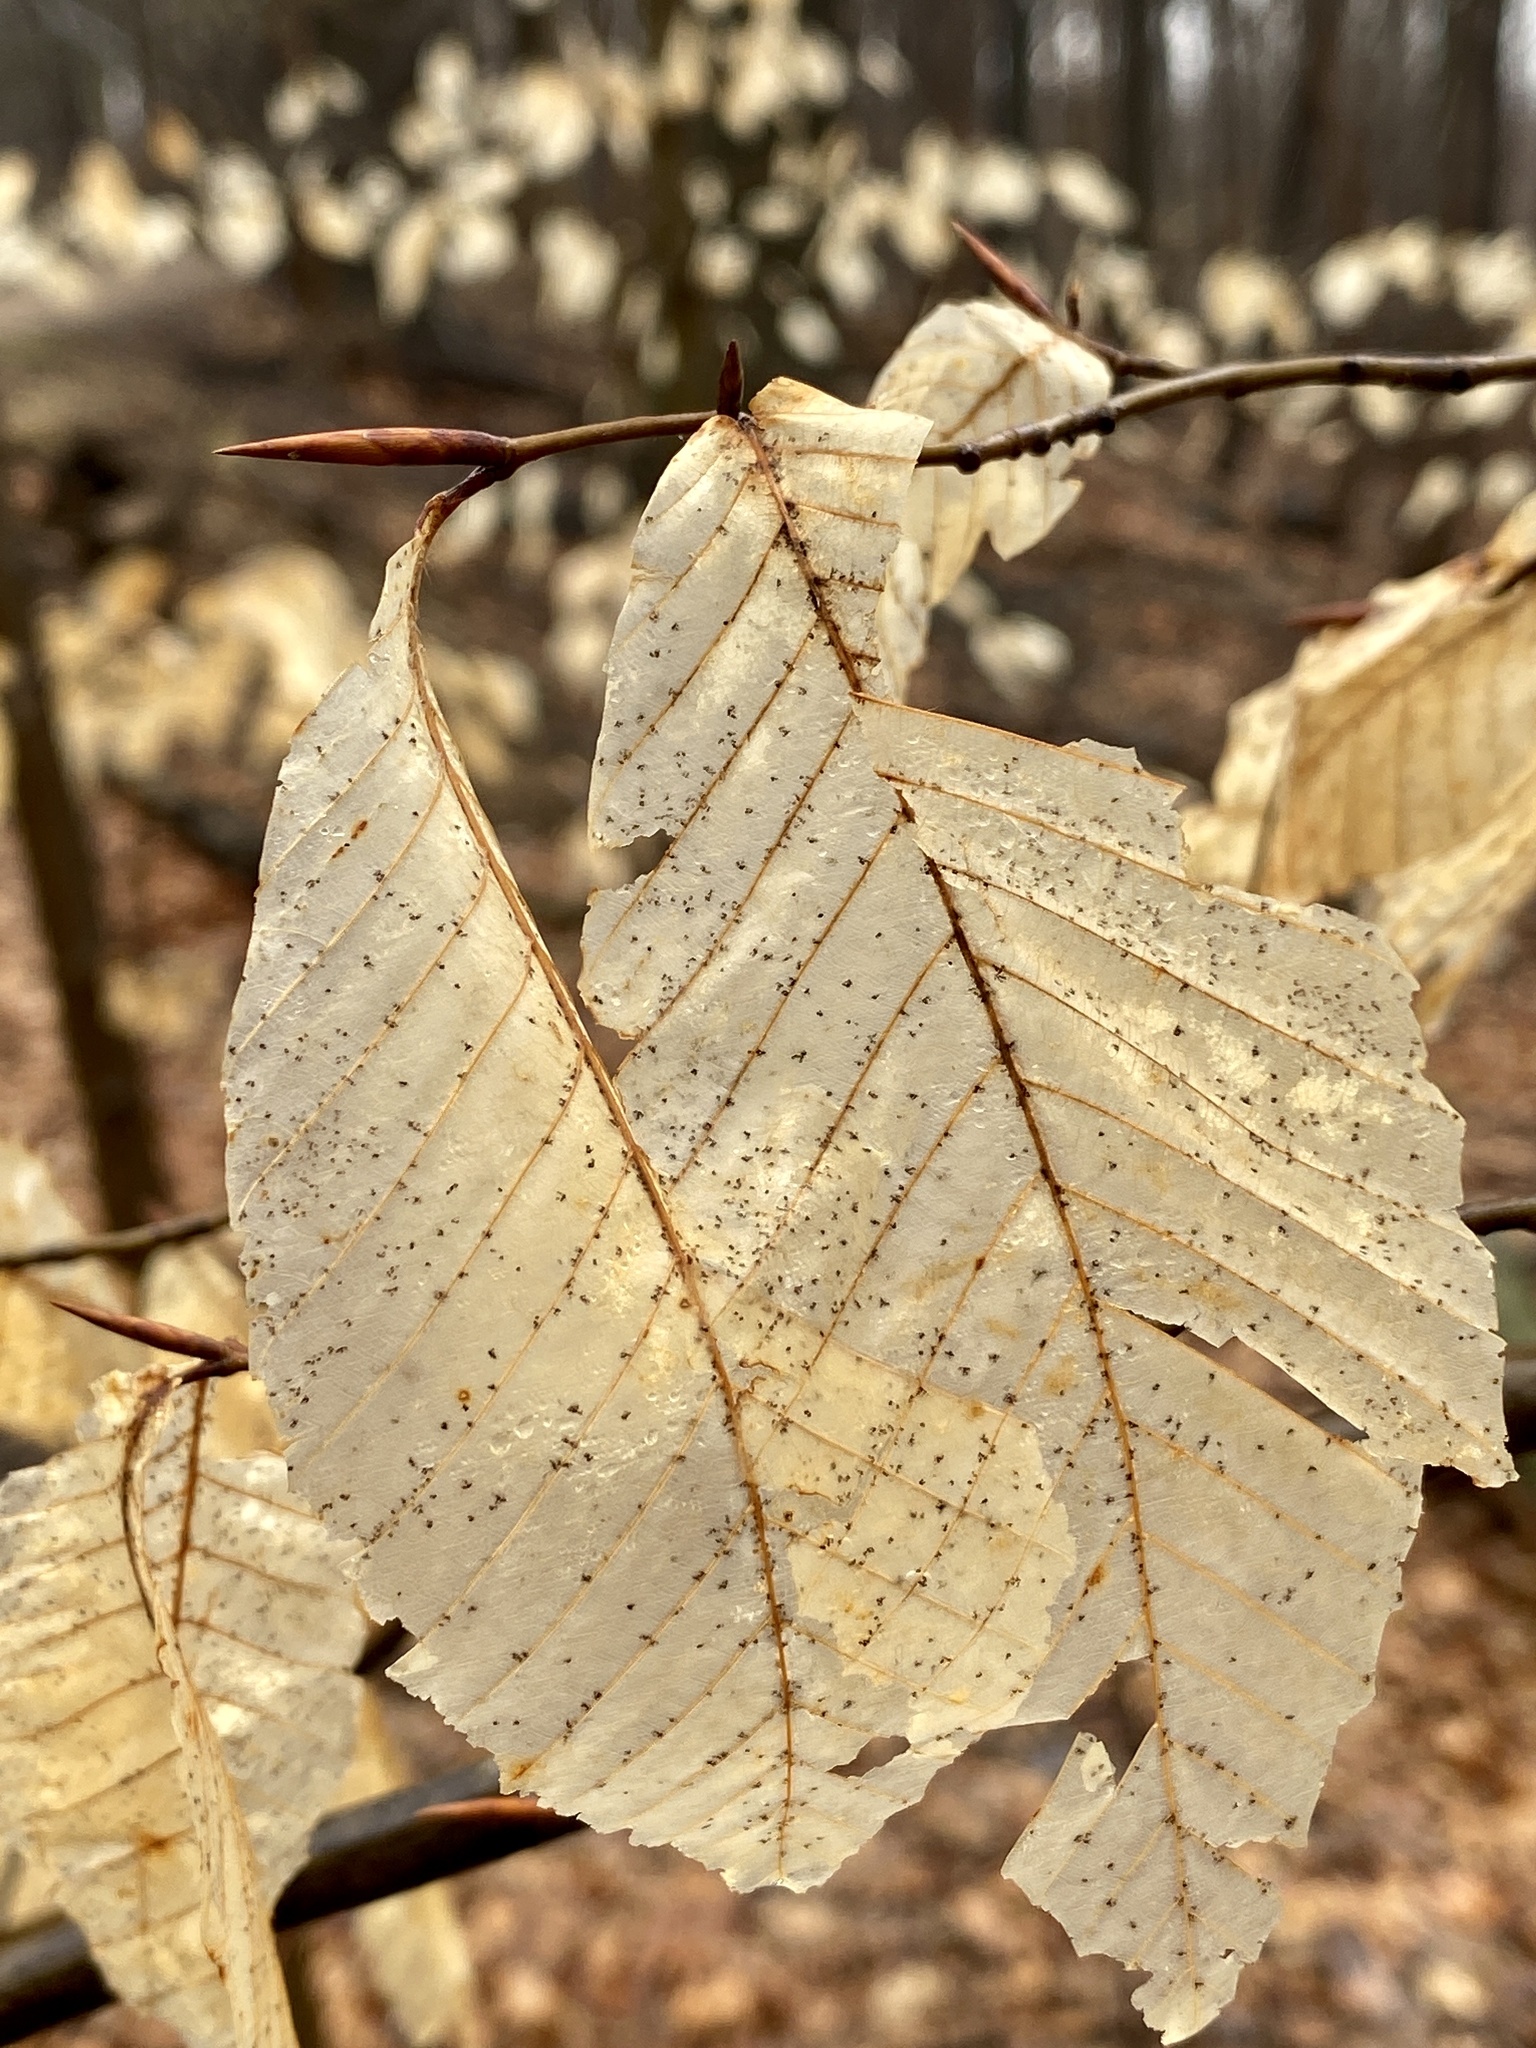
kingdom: Plantae
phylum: Tracheophyta
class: Magnoliopsida
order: Fagales
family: Fagaceae
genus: Fagus
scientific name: Fagus grandifolia
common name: American beech
